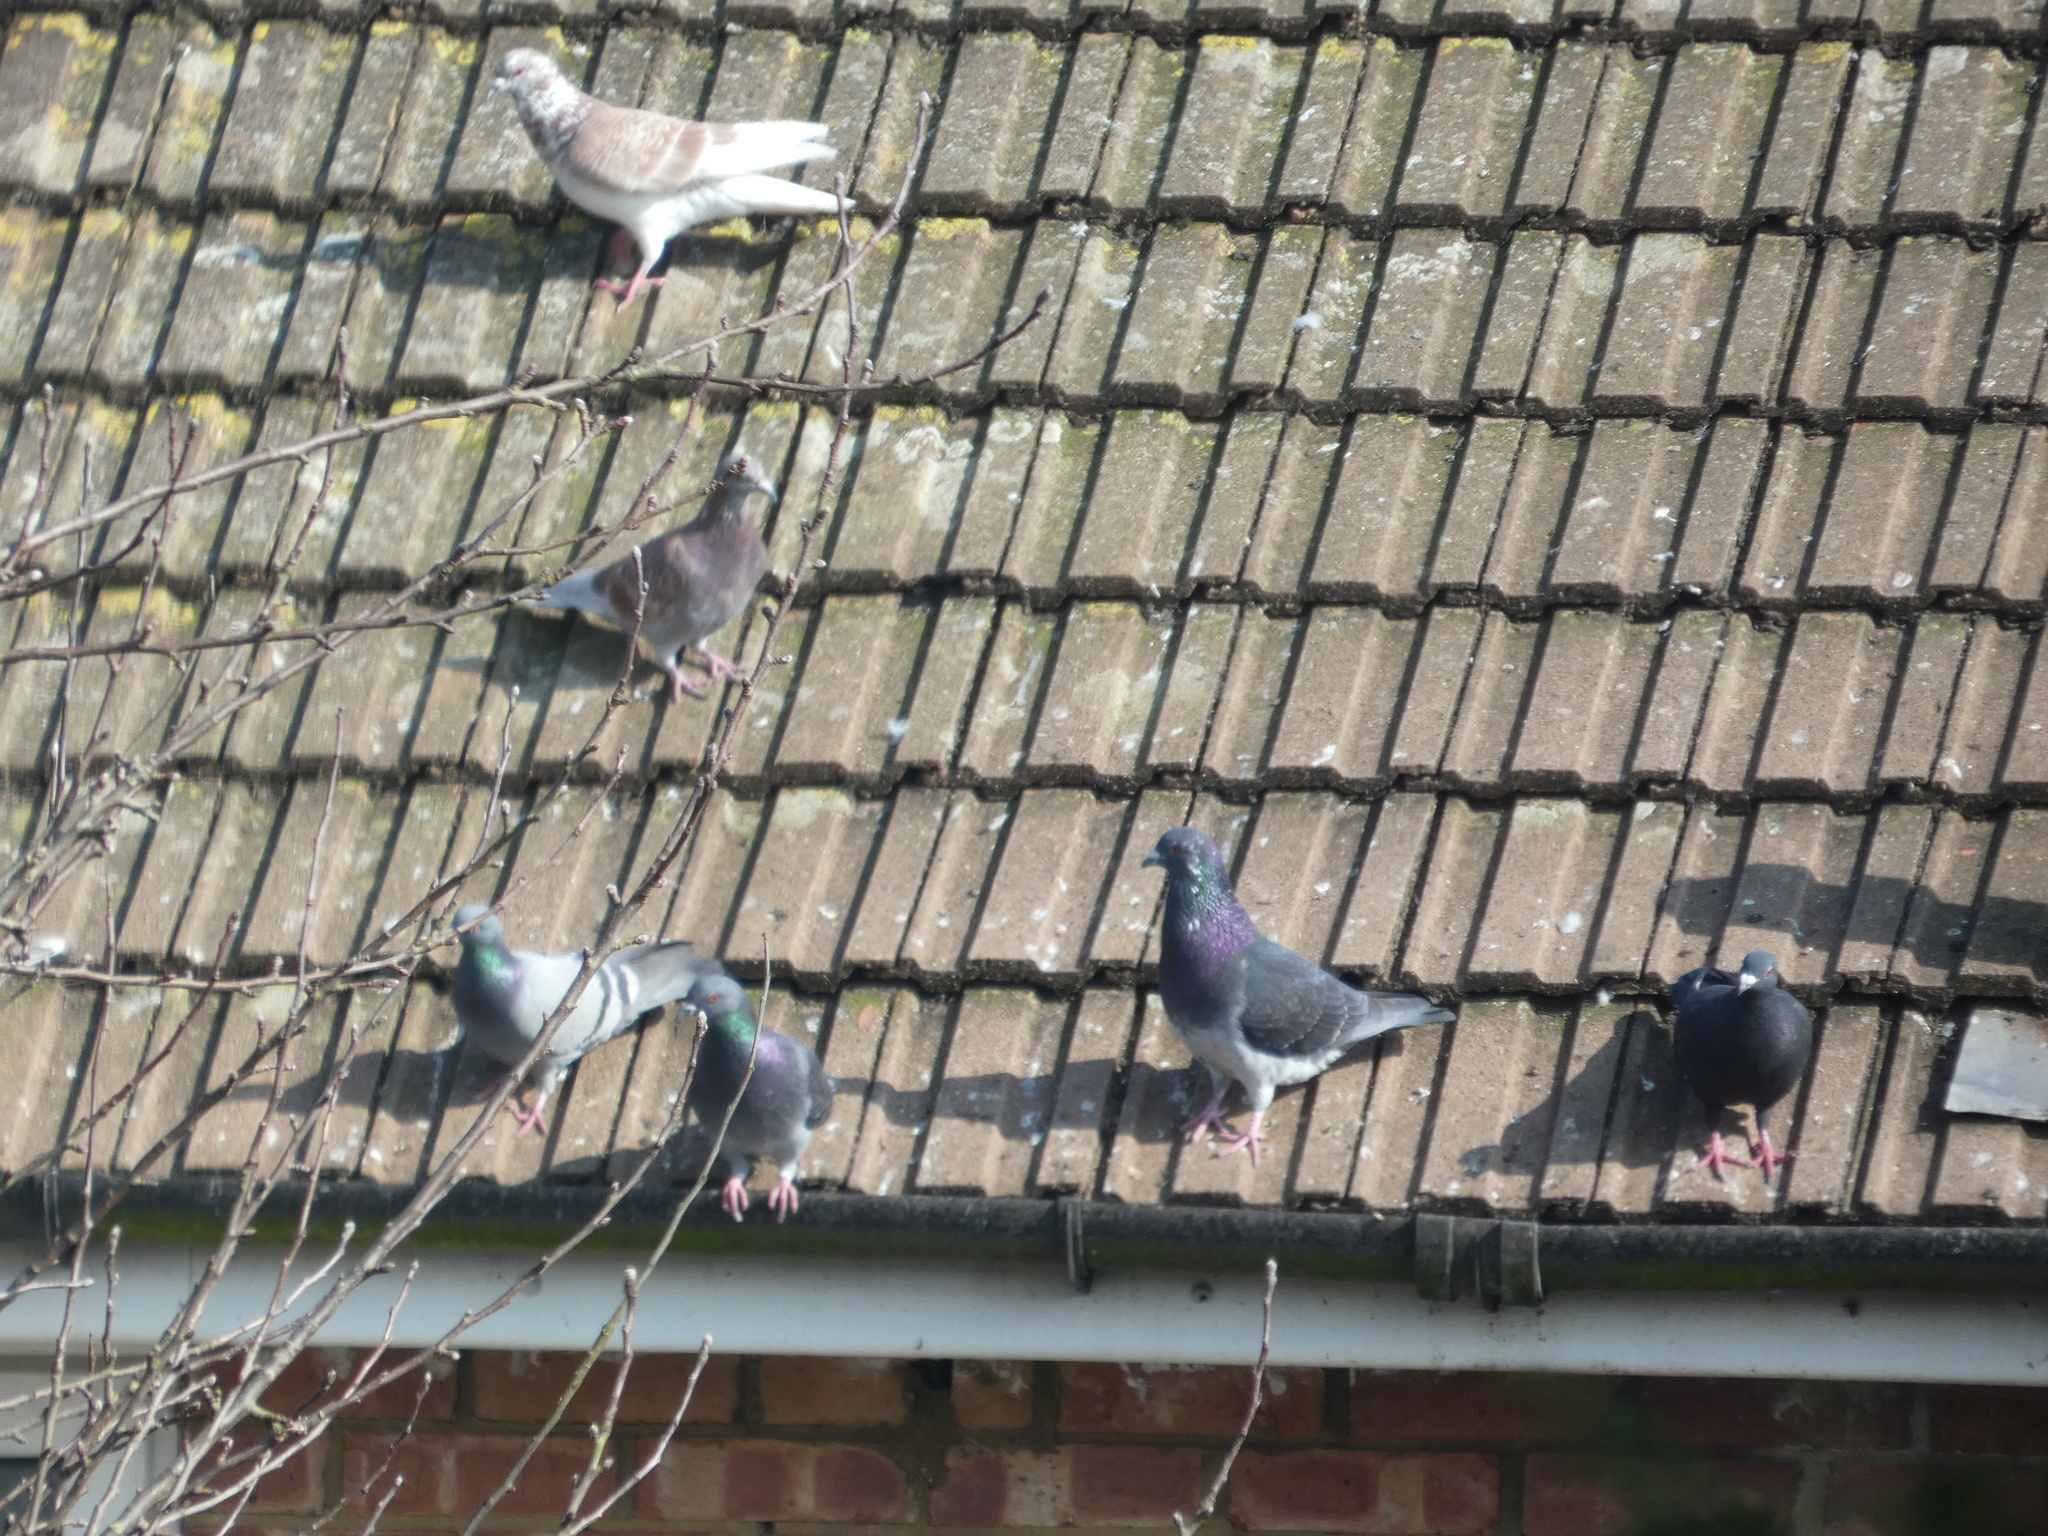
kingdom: Animalia
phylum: Chordata
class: Aves
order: Columbiformes
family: Columbidae
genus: Columba
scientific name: Columba livia
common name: Rock pigeon
